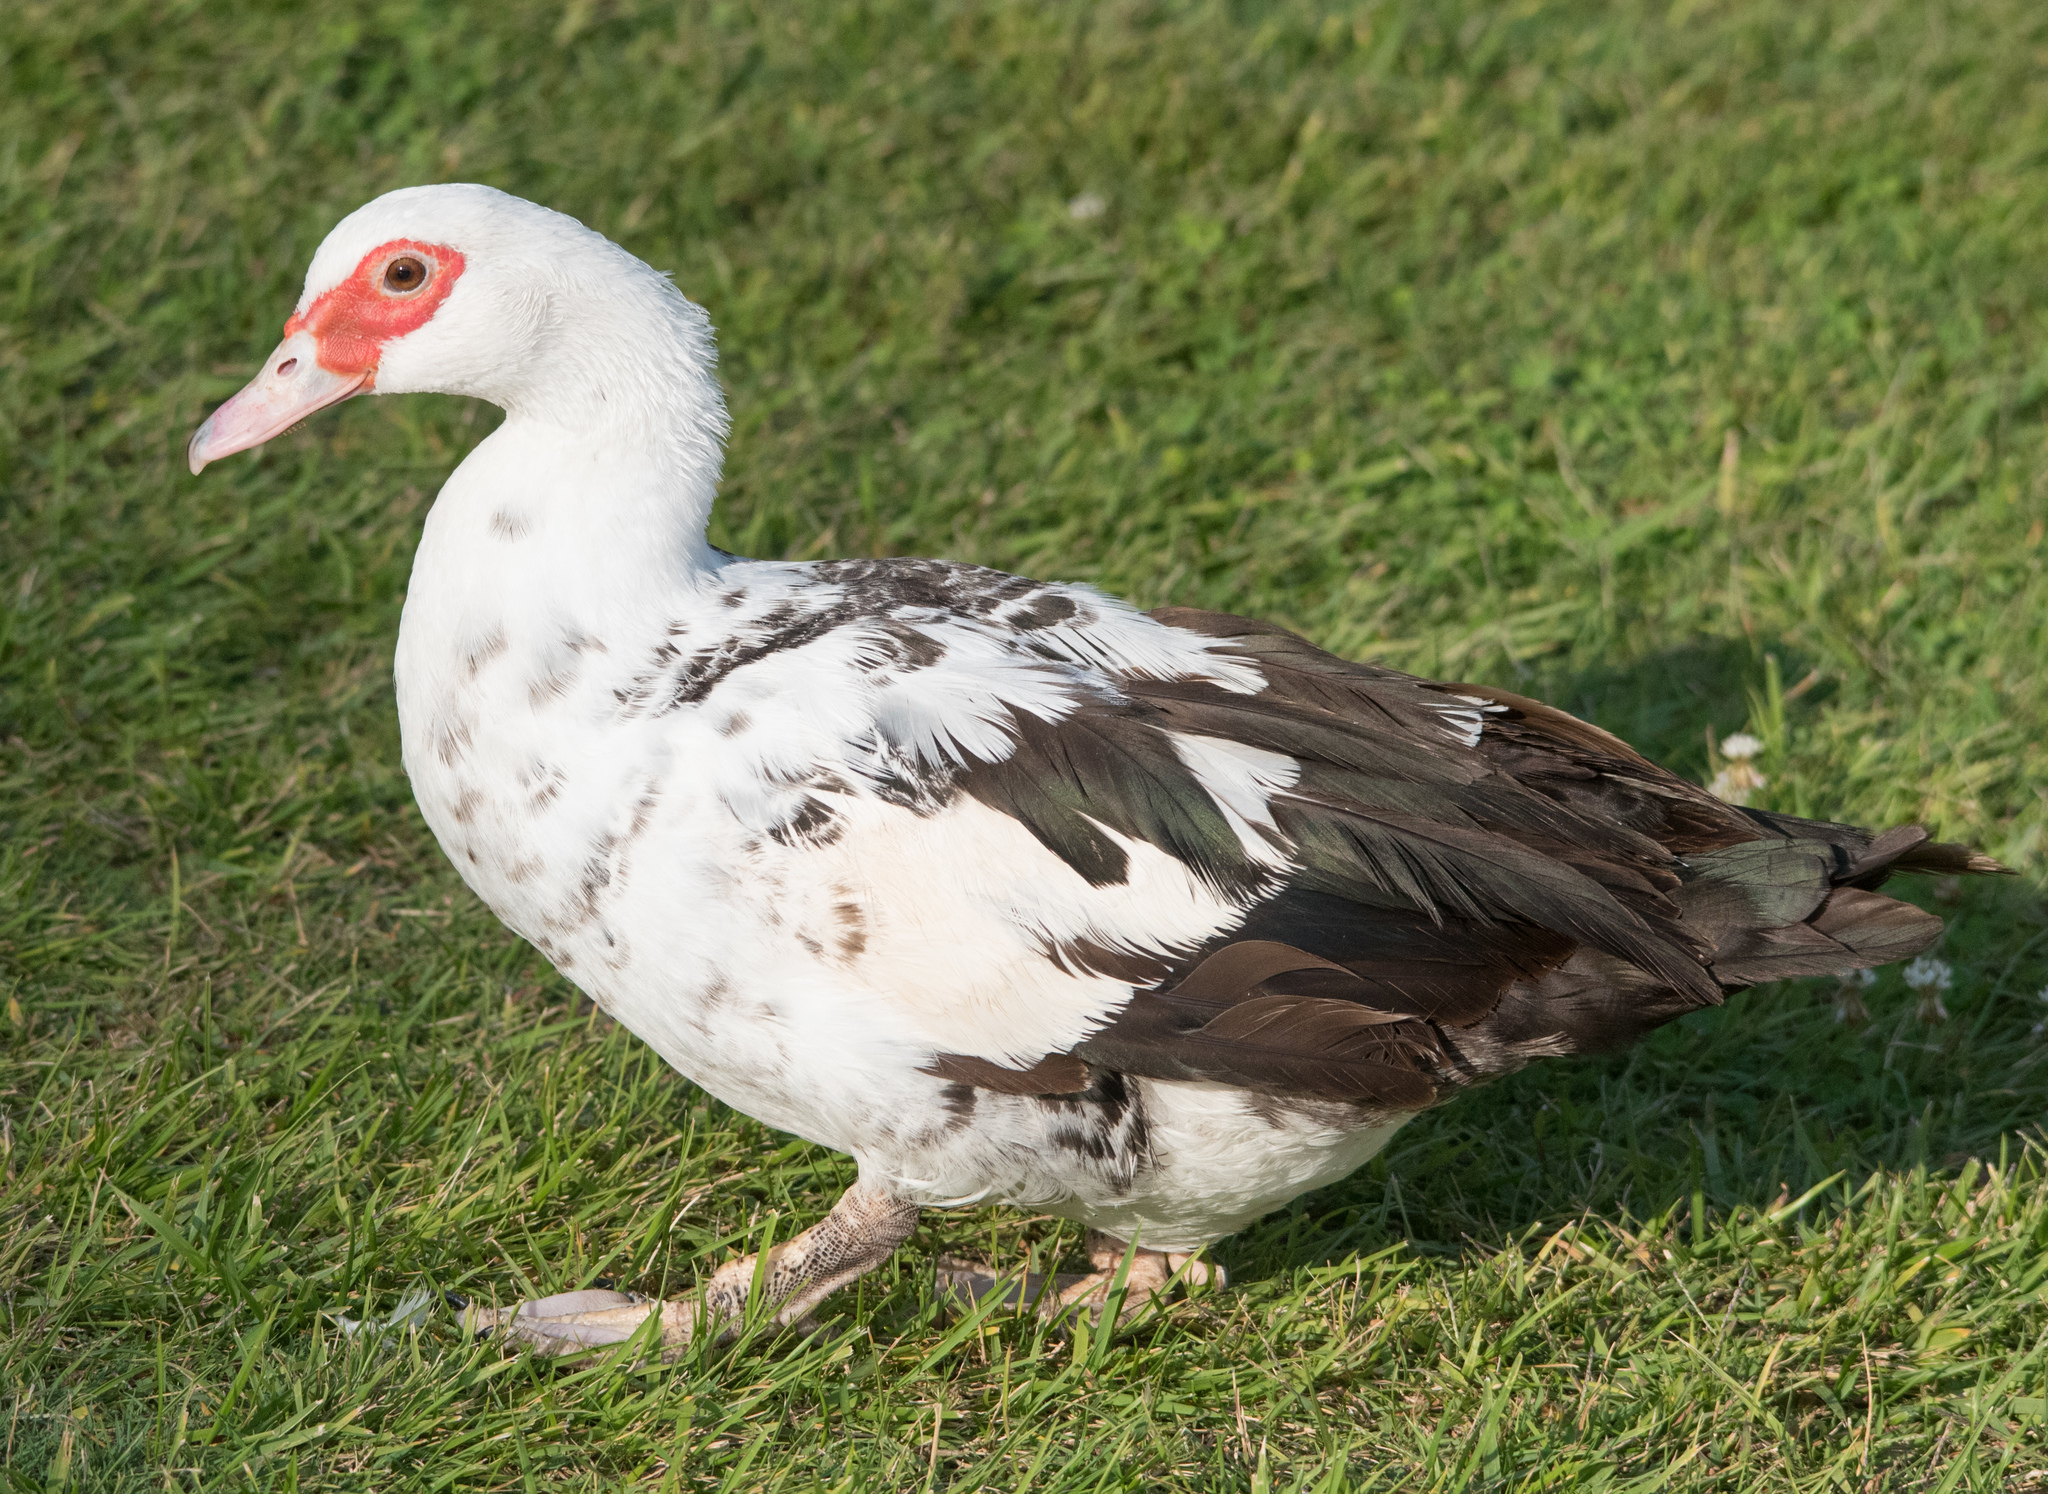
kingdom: Animalia
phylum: Chordata
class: Aves
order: Anseriformes
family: Anatidae
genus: Cairina
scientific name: Cairina moschata
